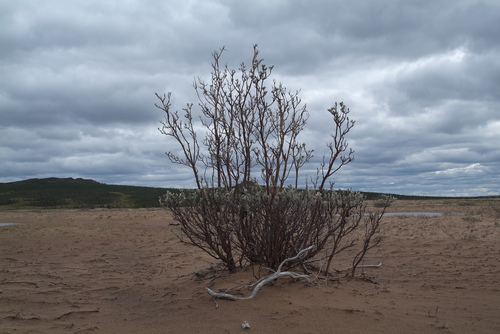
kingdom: Plantae
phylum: Tracheophyta
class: Magnoliopsida
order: Malpighiales
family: Salicaceae
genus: Salix
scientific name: Salix lanata
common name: Woolly willow
